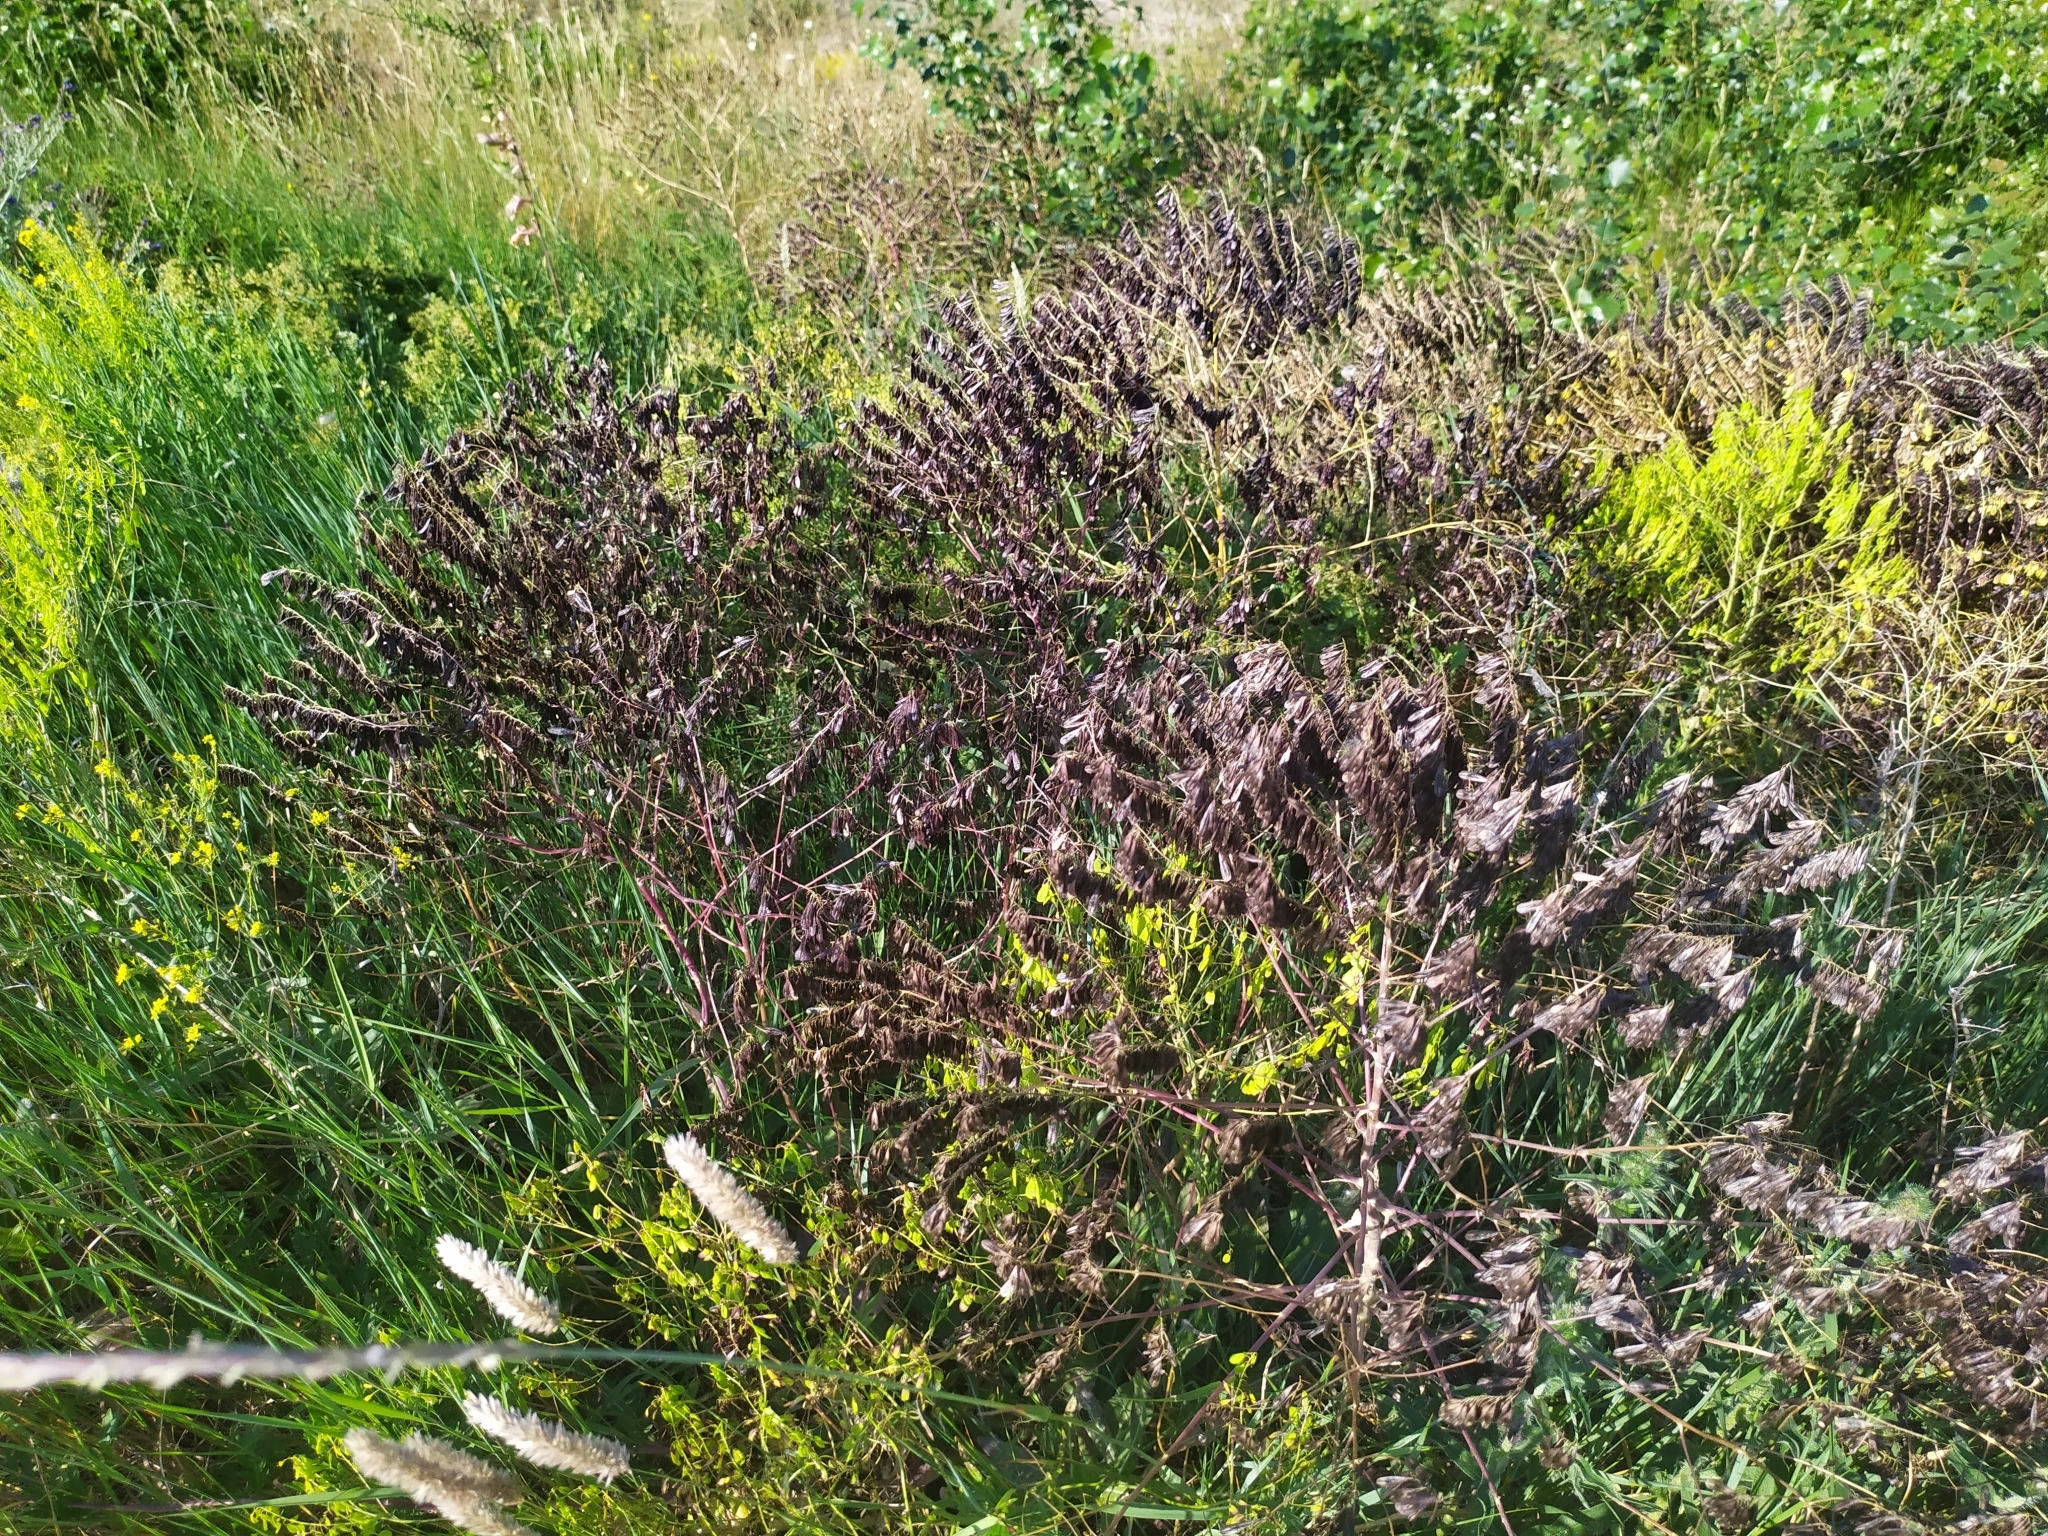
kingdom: Plantae
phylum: Tracheophyta
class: Magnoliopsida
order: Brassicales
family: Brassicaceae
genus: Isatis
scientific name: Isatis tinctoria
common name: Woad
